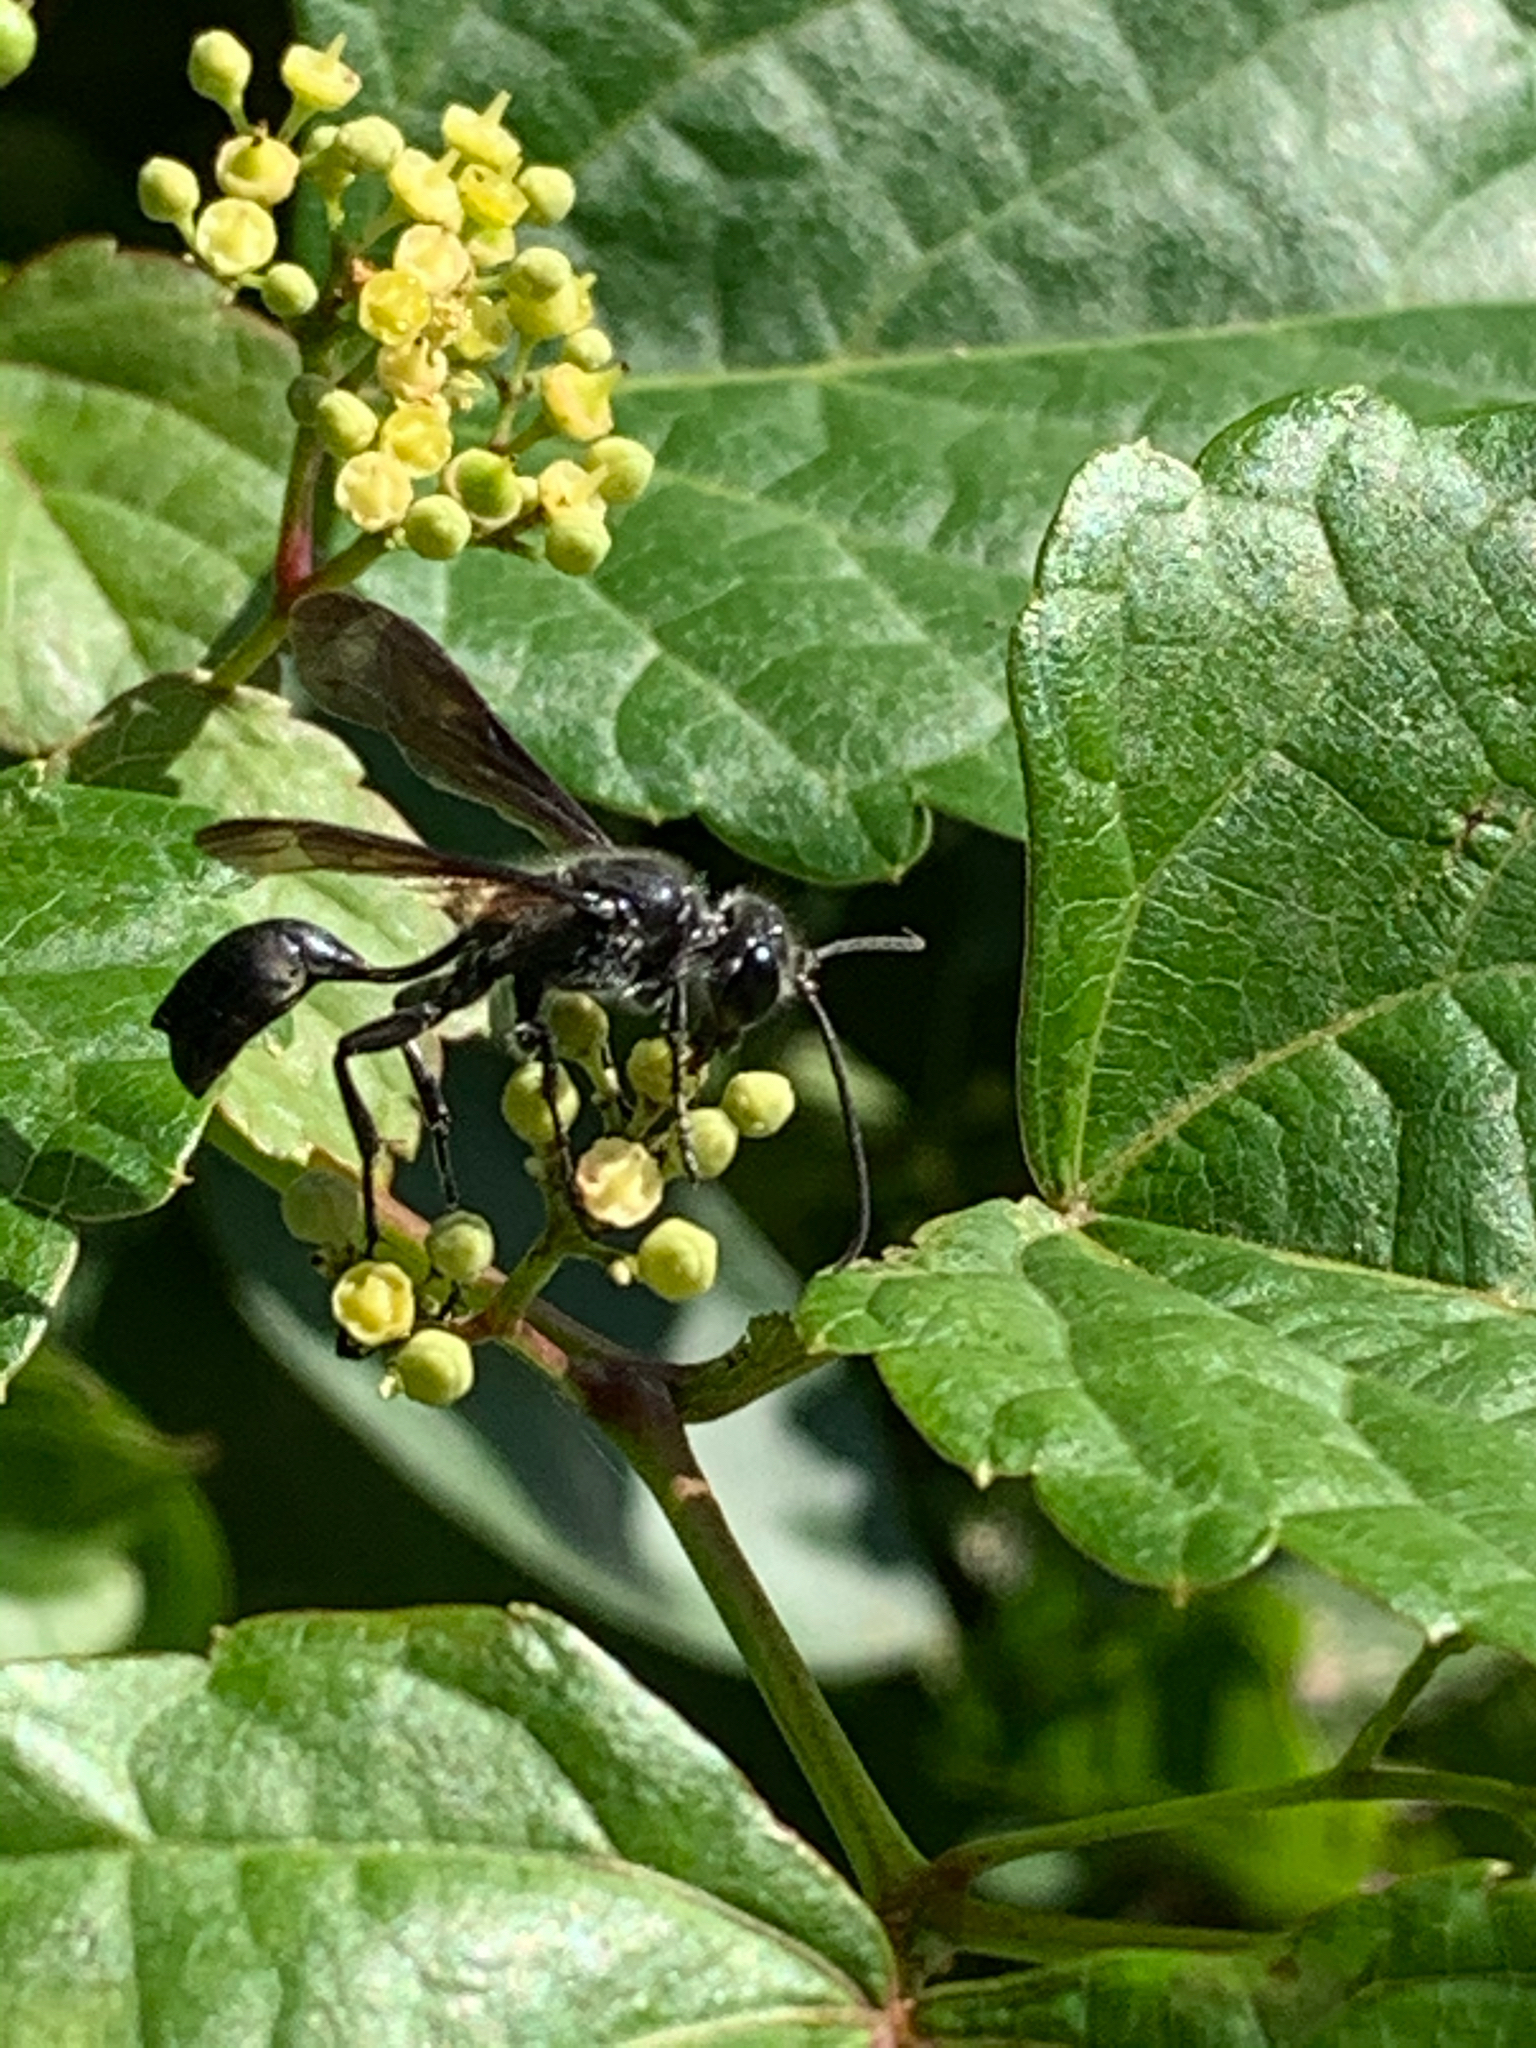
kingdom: Animalia
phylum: Arthropoda
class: Insecta
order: Hymenoptera
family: Sphecidae
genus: Isodontia
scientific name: Isodontia
